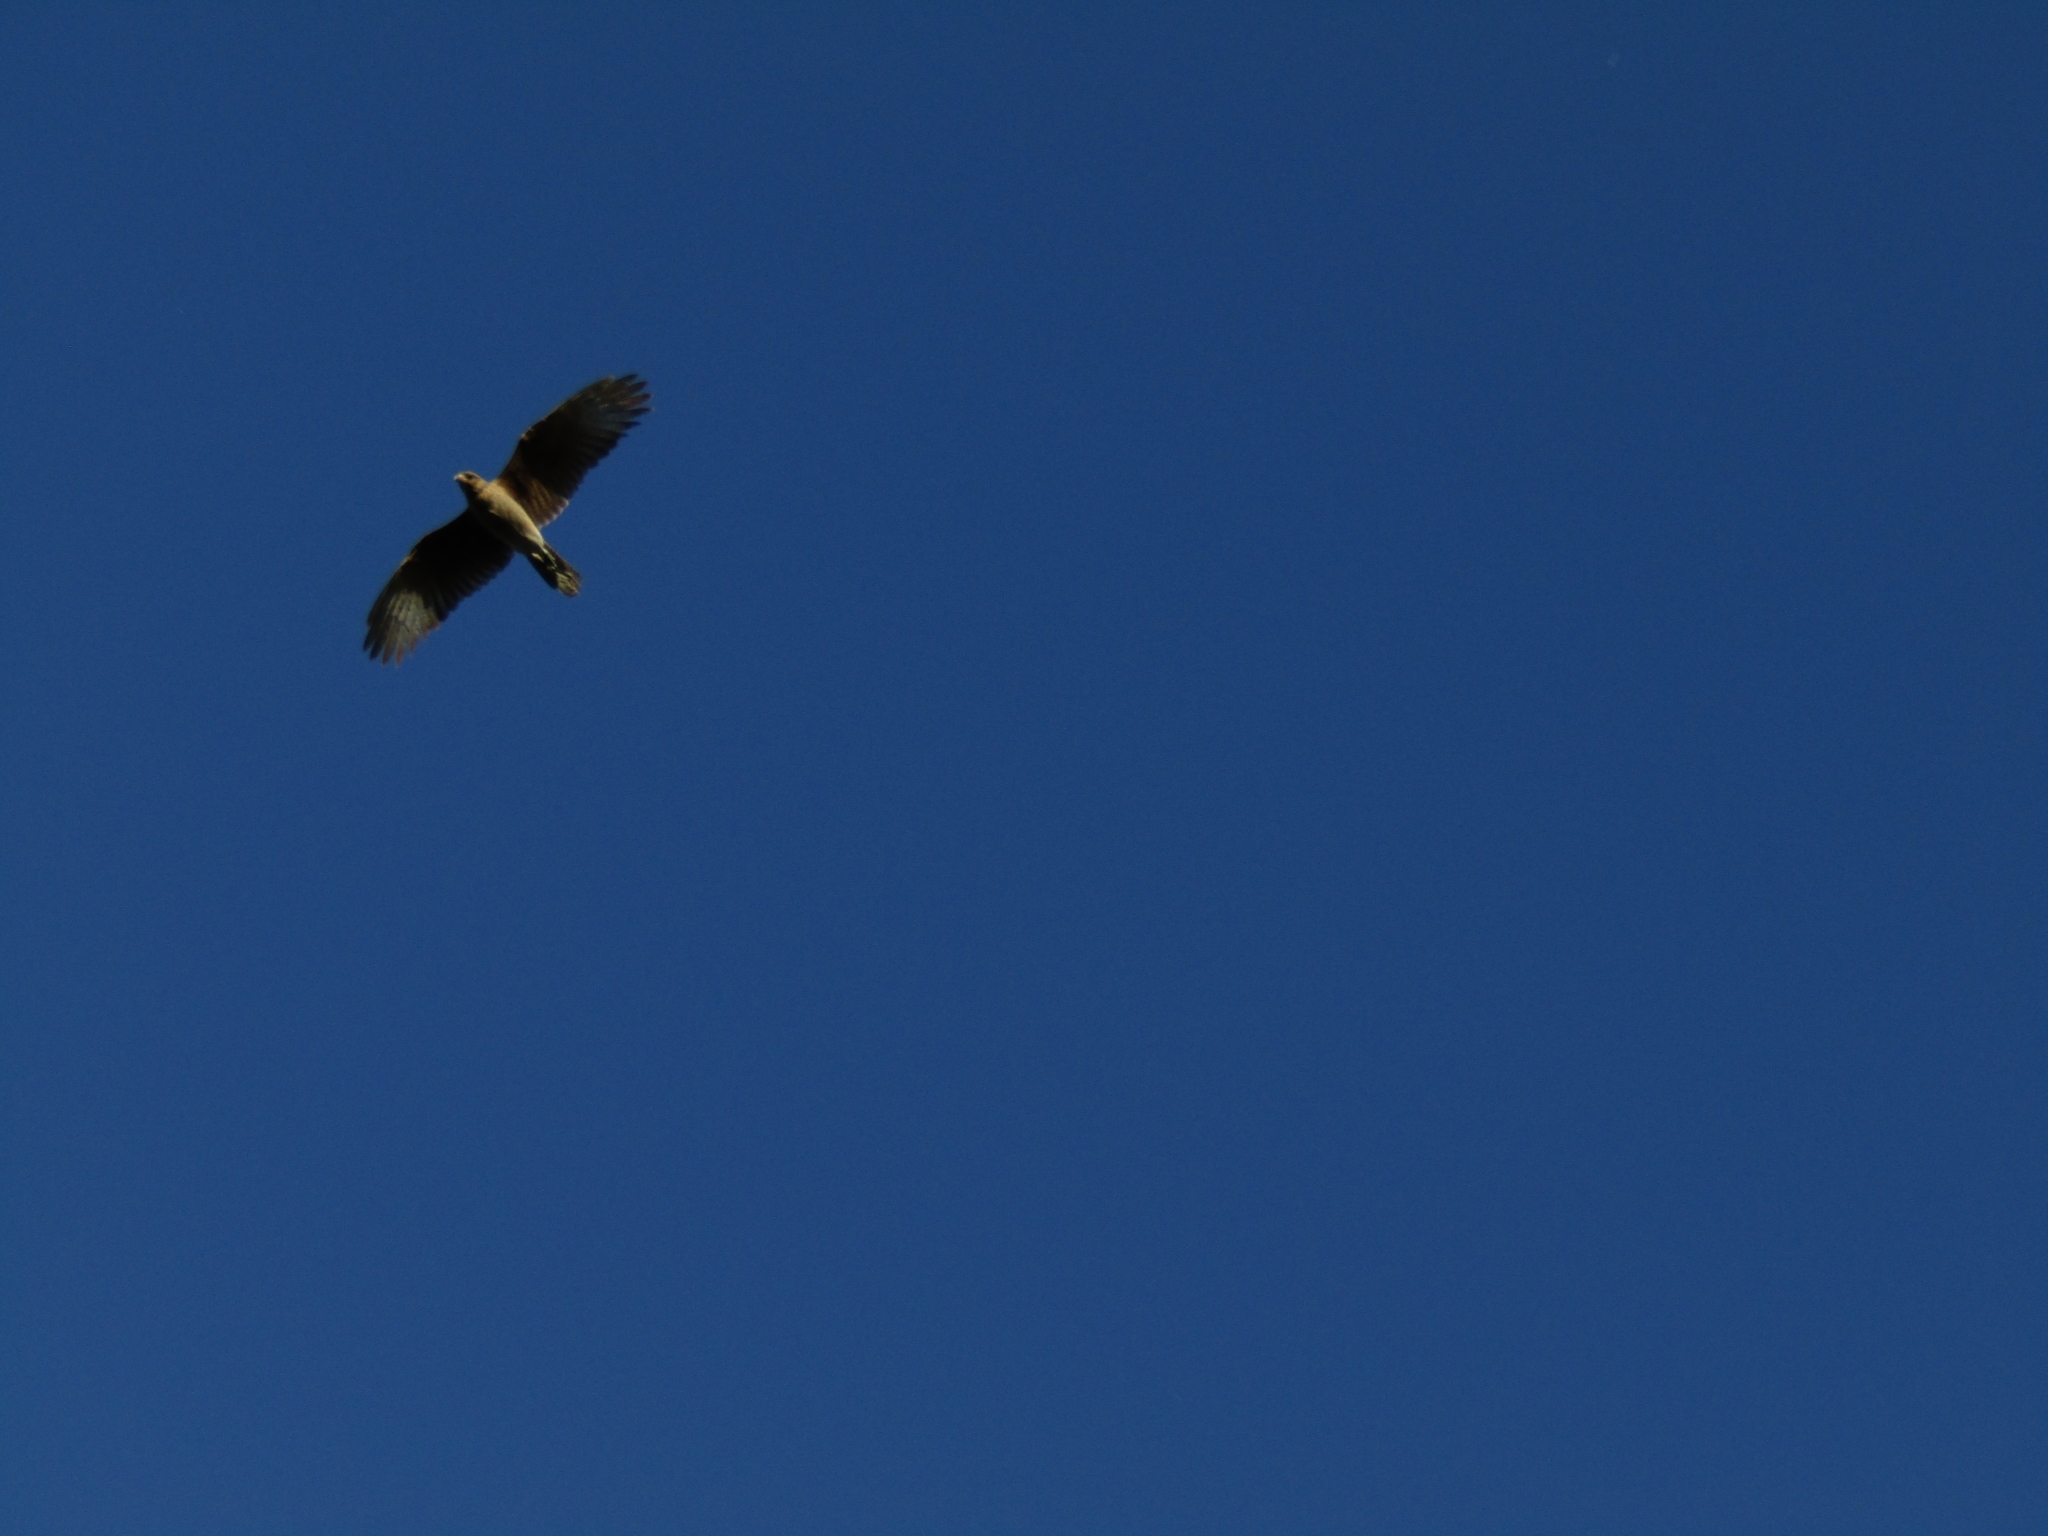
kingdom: Animalia
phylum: Chordata
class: Aves
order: Falconiformes
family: Falconidae
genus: Daptrius
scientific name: Daptrius
